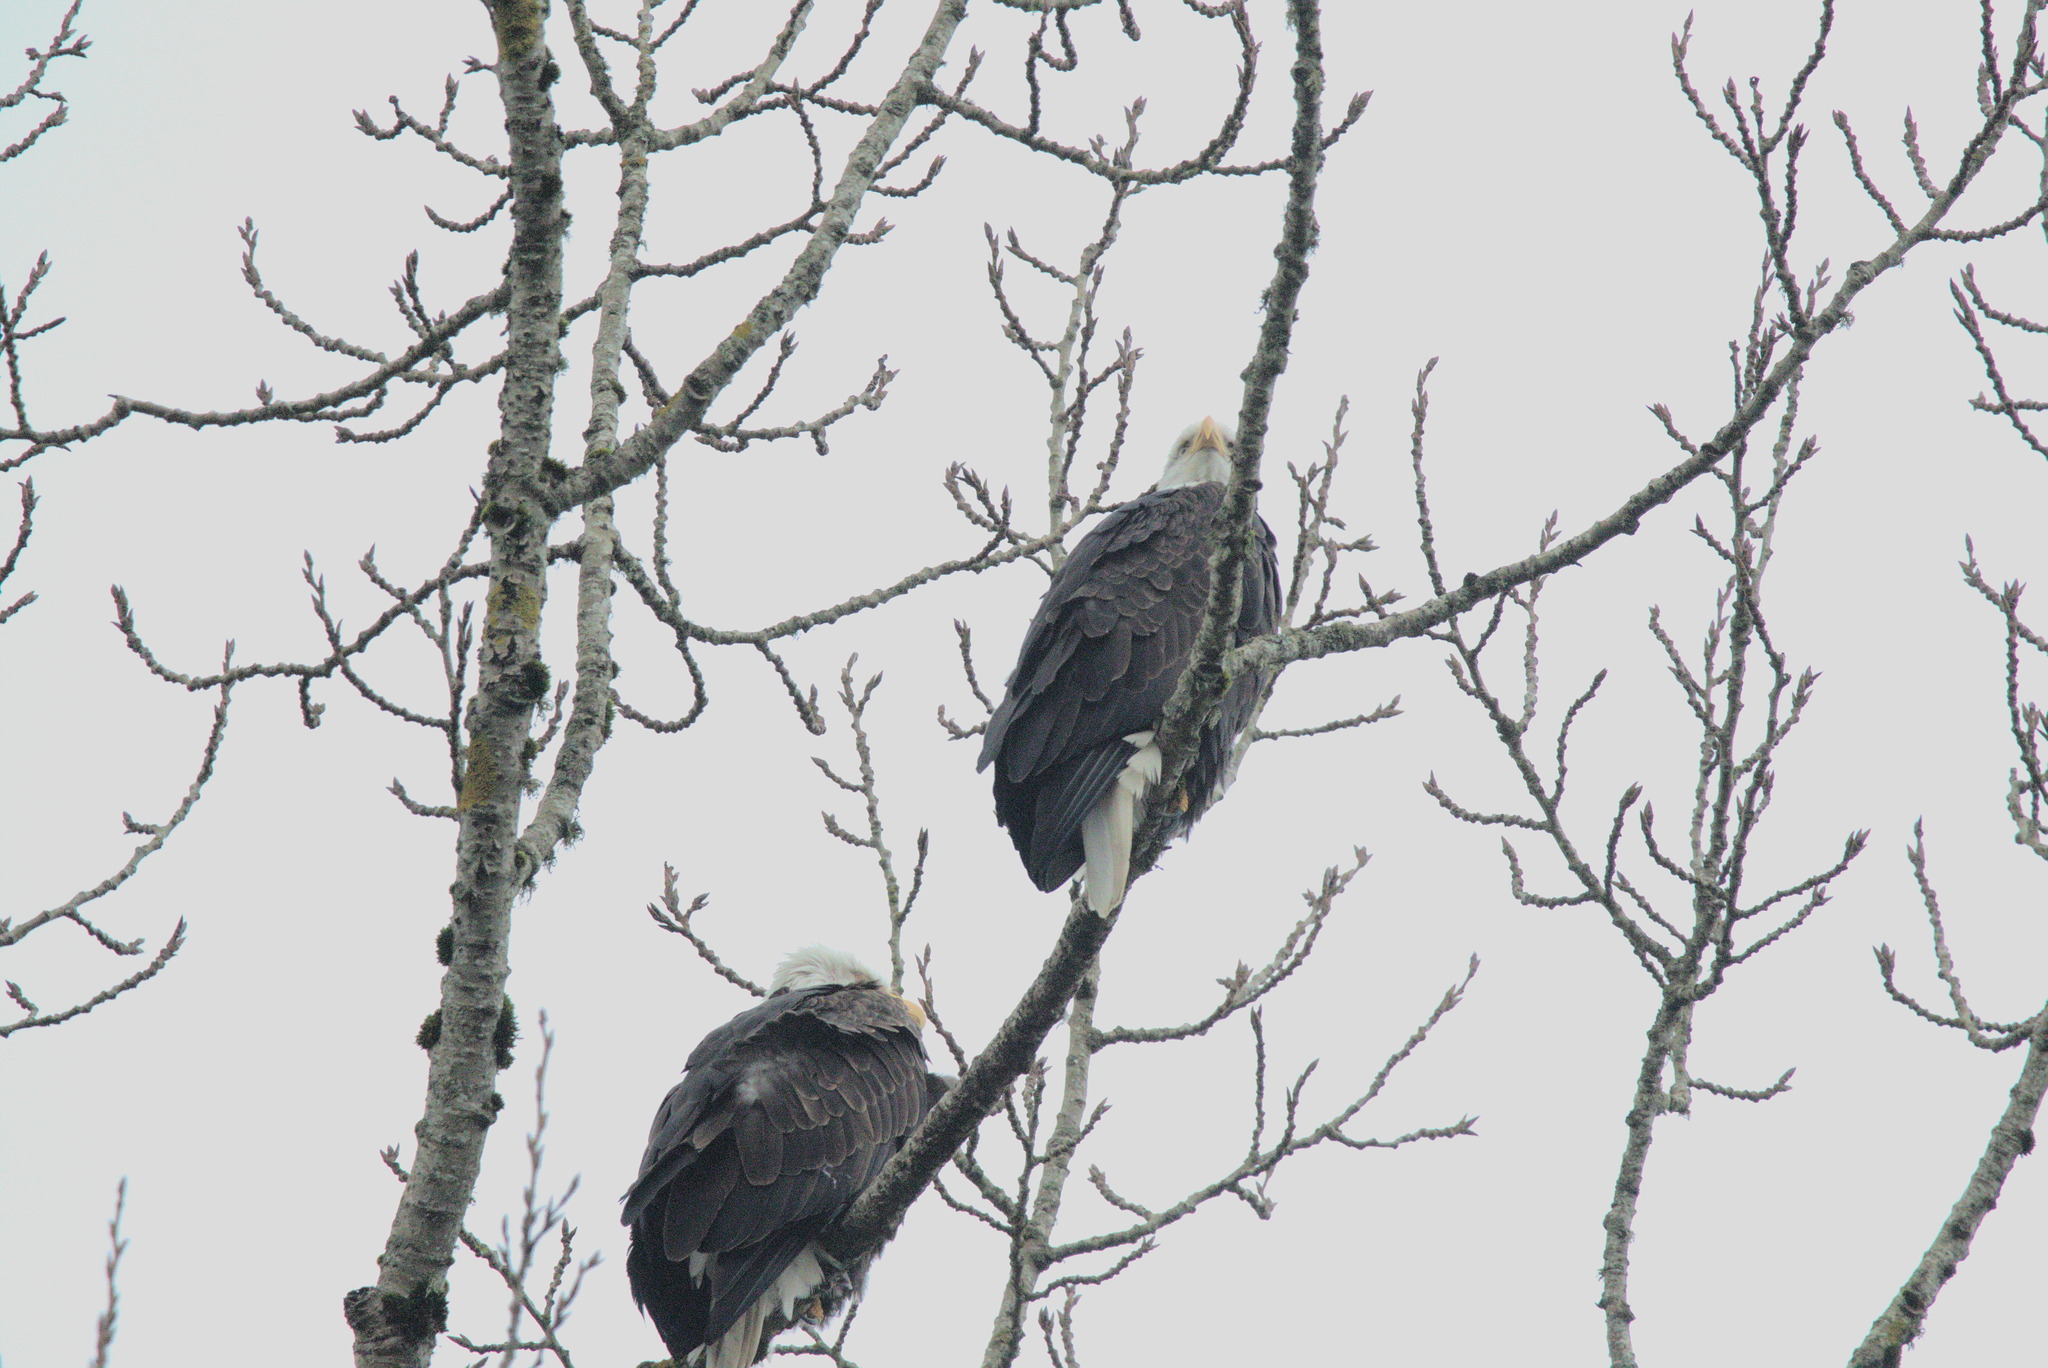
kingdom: Animalia
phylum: Chordata
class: Aves
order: Accipitriformes
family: Accipitridae
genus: Haliaeetus
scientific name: Haliaeetus leucocephalus
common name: Bald eagle
